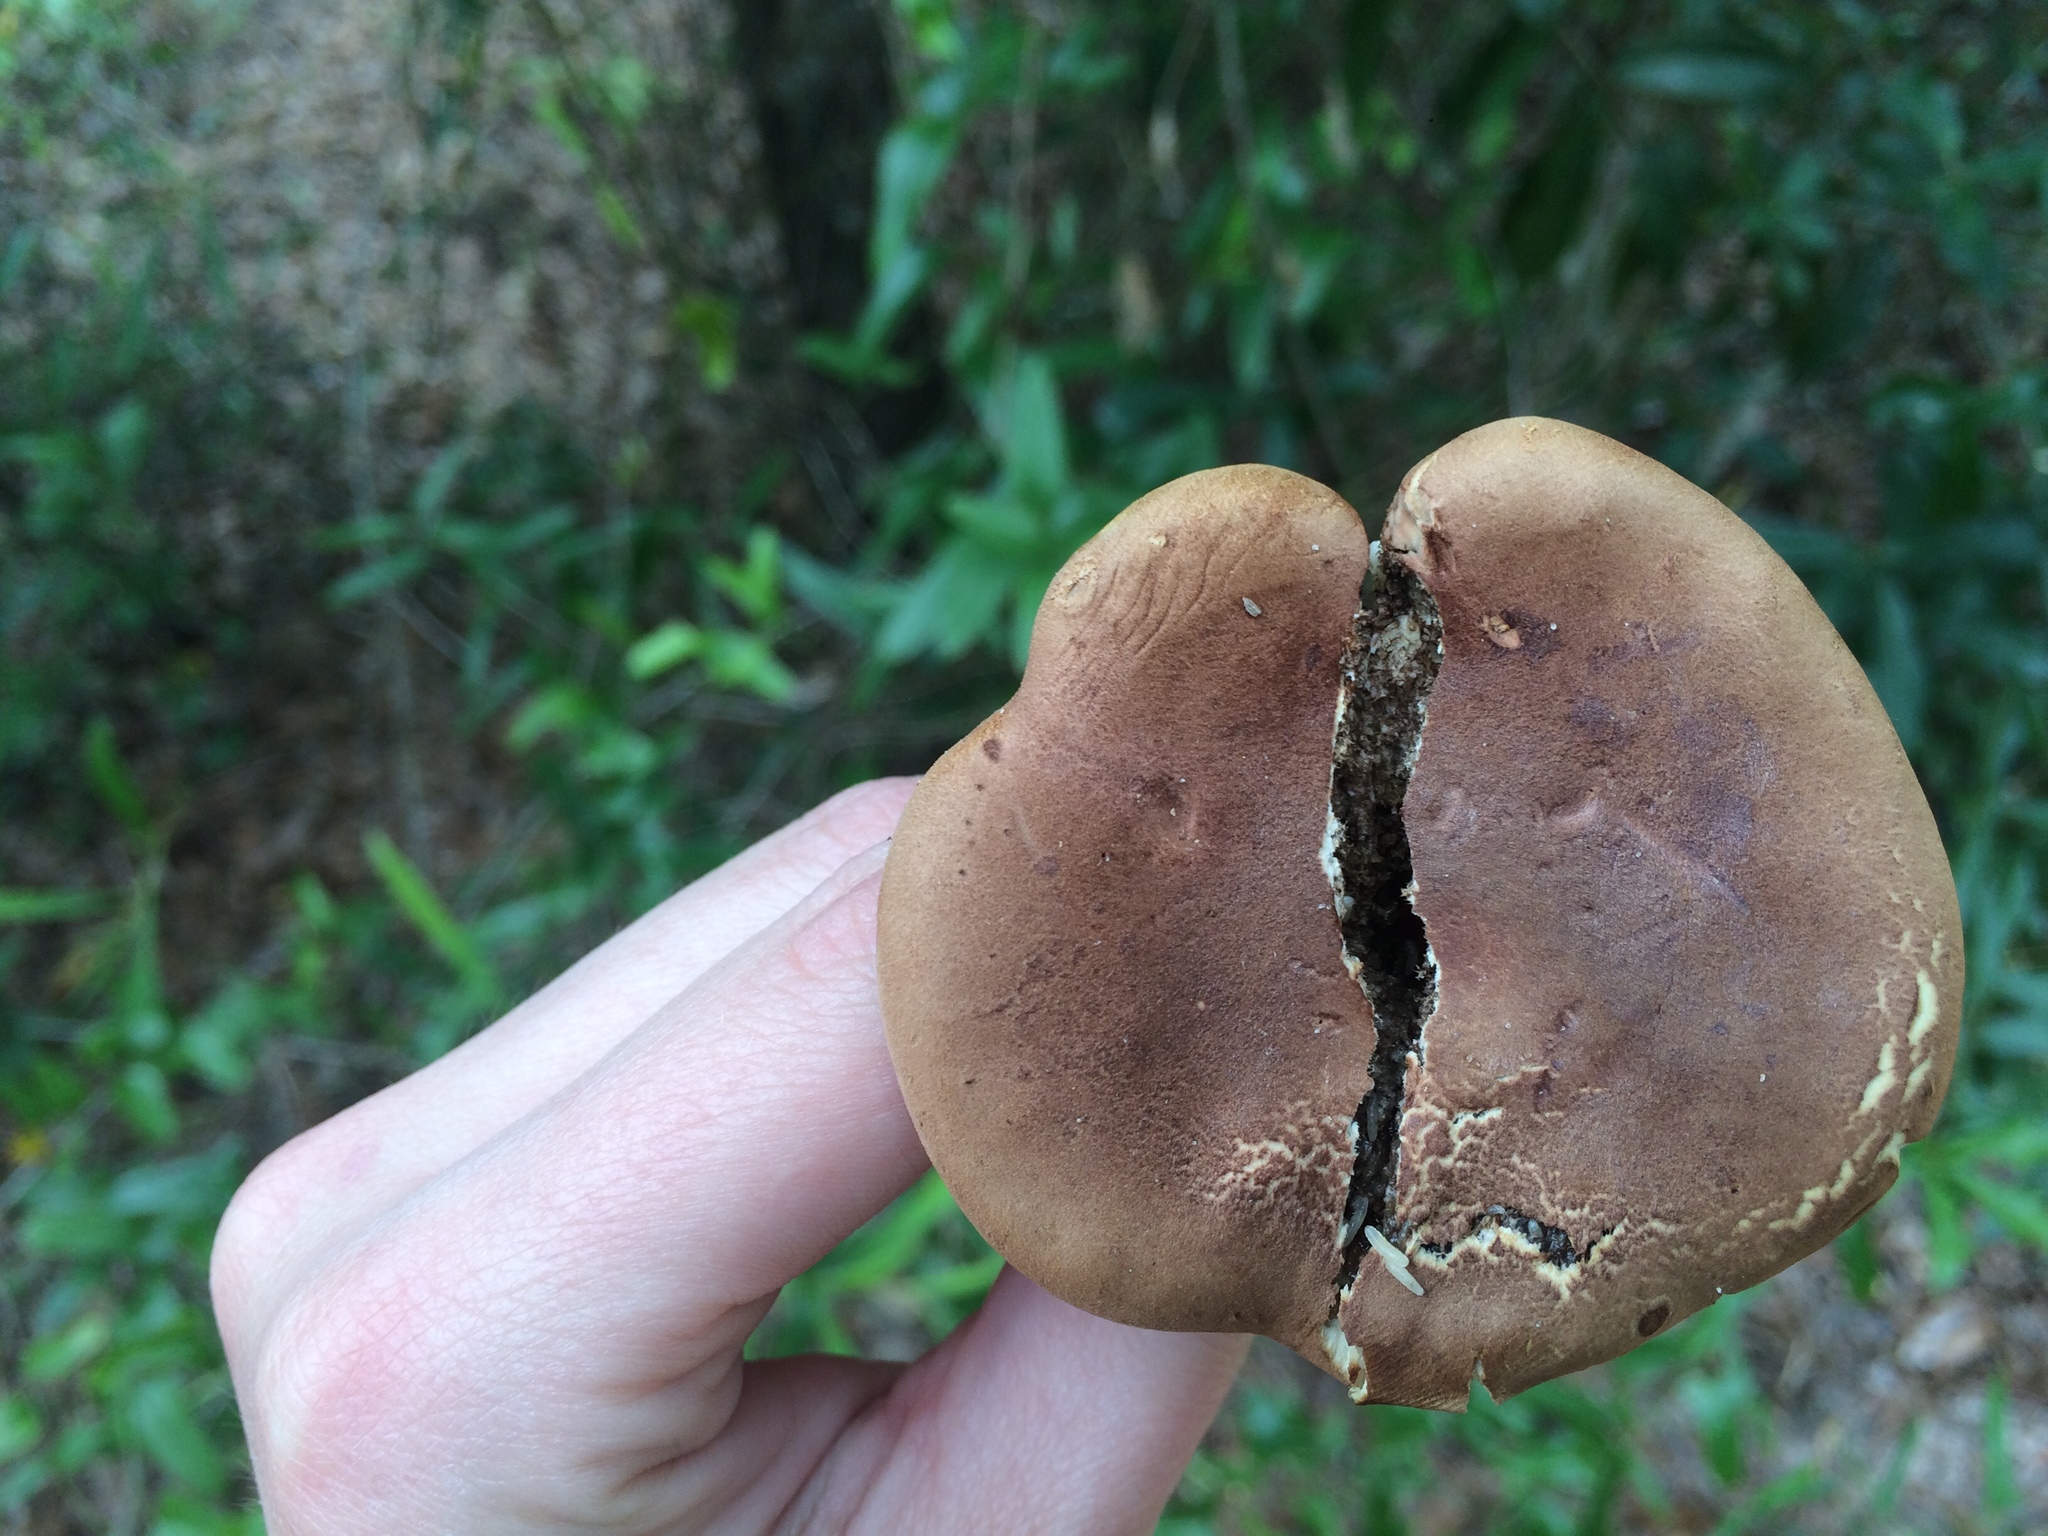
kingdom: Fungi
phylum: Basidiomycota
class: Agaricomycetes
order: Boletales
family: Boletaceae
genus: Phylloporopsis
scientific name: Phylloporopsis boletinoides
